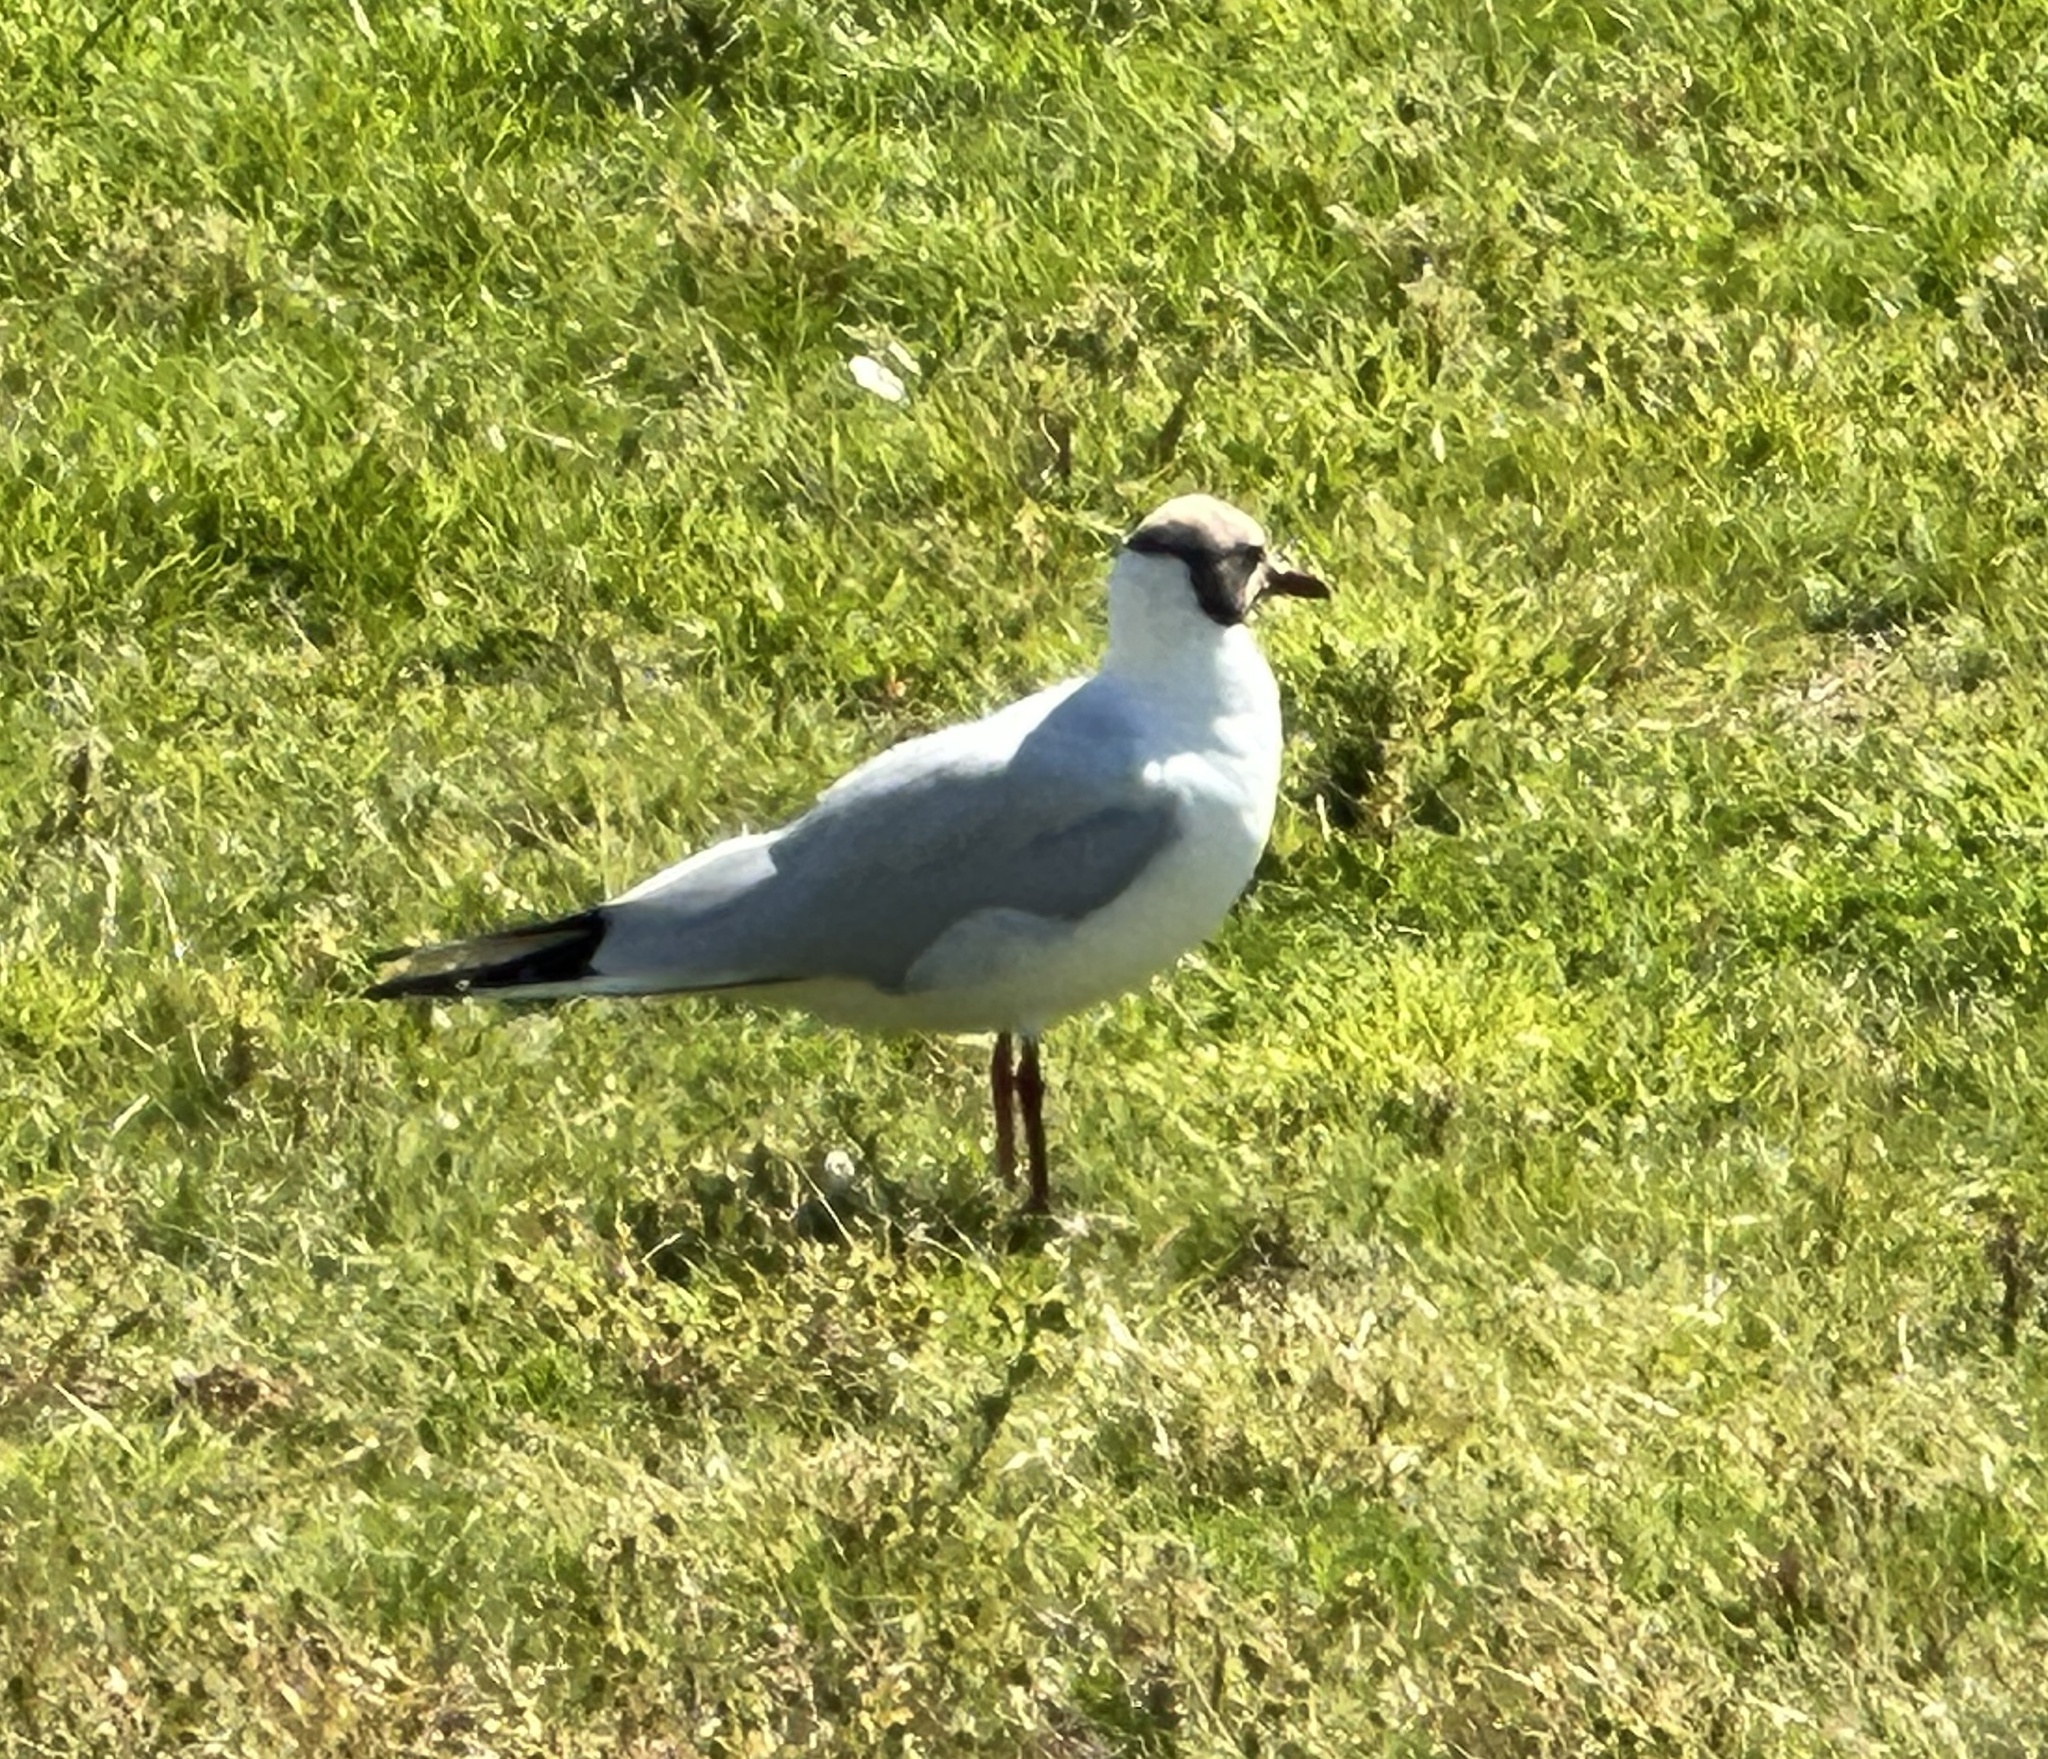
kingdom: Animalia
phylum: Chordata
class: Aves
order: Charadriiformes
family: Laridae
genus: Chroicocephalus
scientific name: Chroicocephalus ridibundus
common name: Black-headed gull
